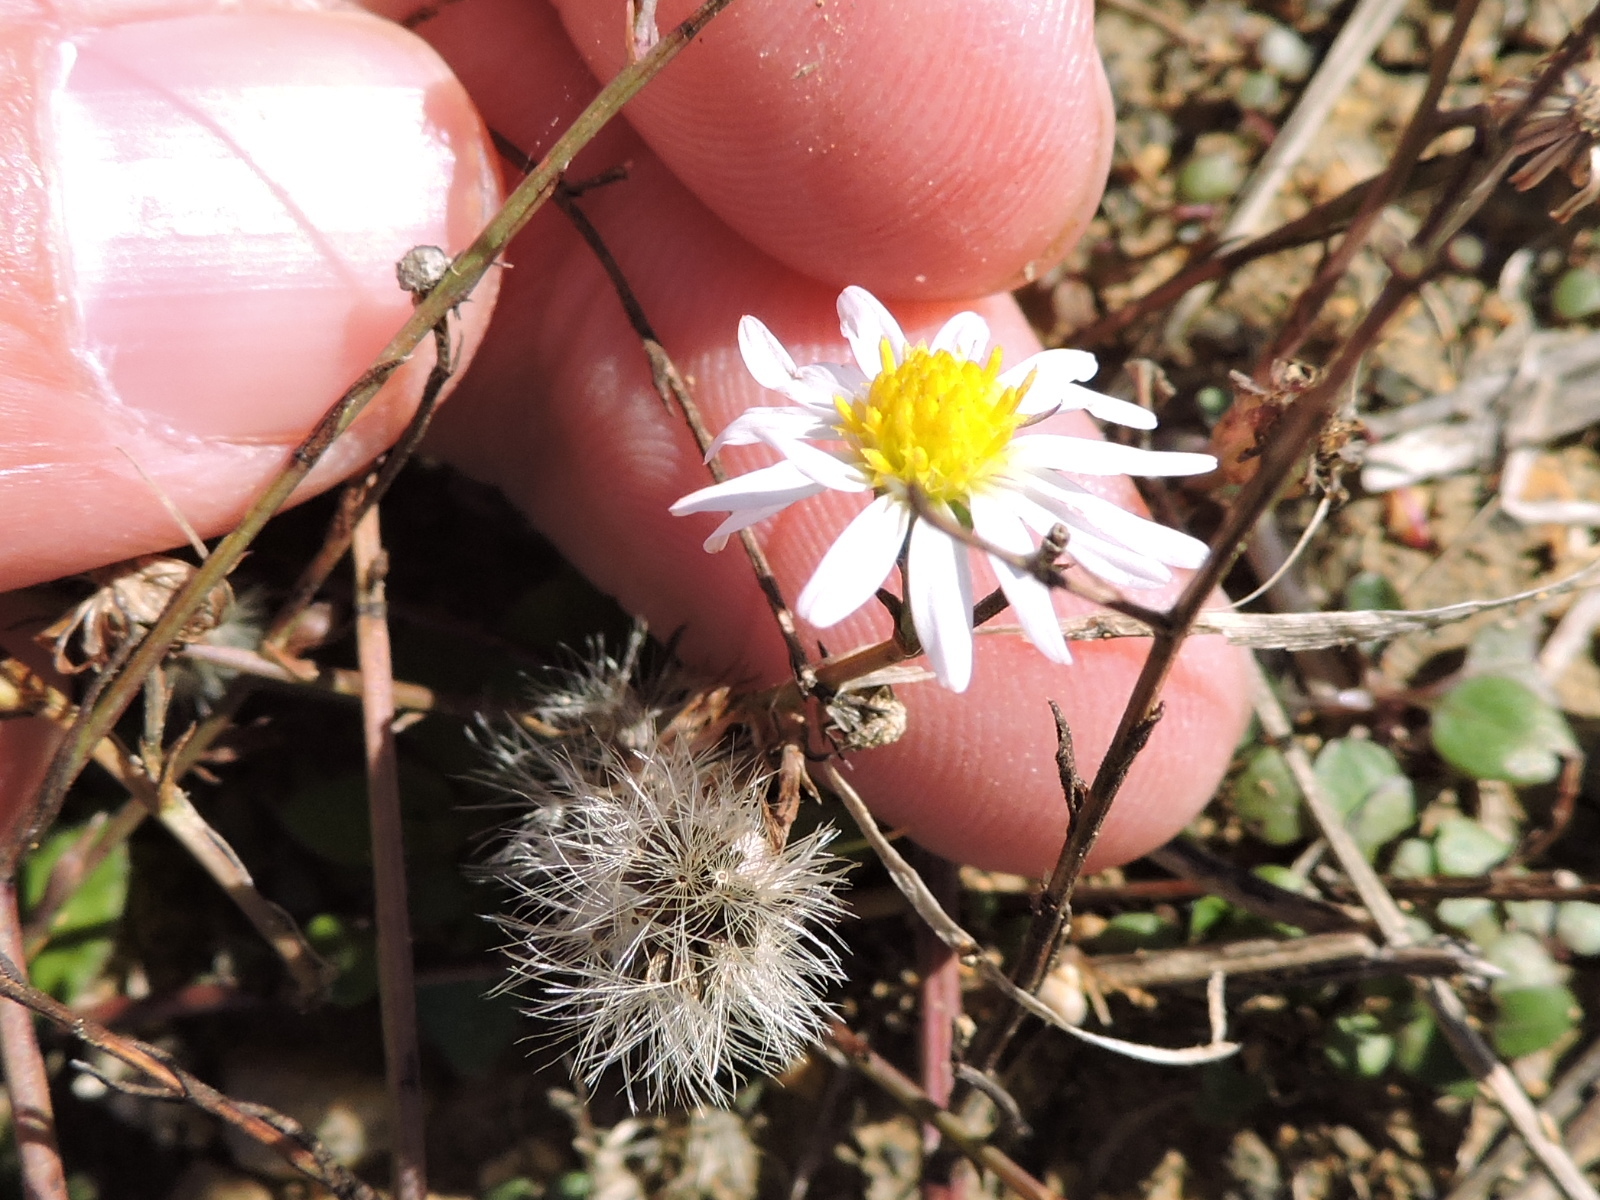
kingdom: Plantae
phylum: Tracheophyta
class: Magnoliopsida
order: Asterales
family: Asteraceae
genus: Symphyotrichum
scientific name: Symphyotrichum divaricatum
